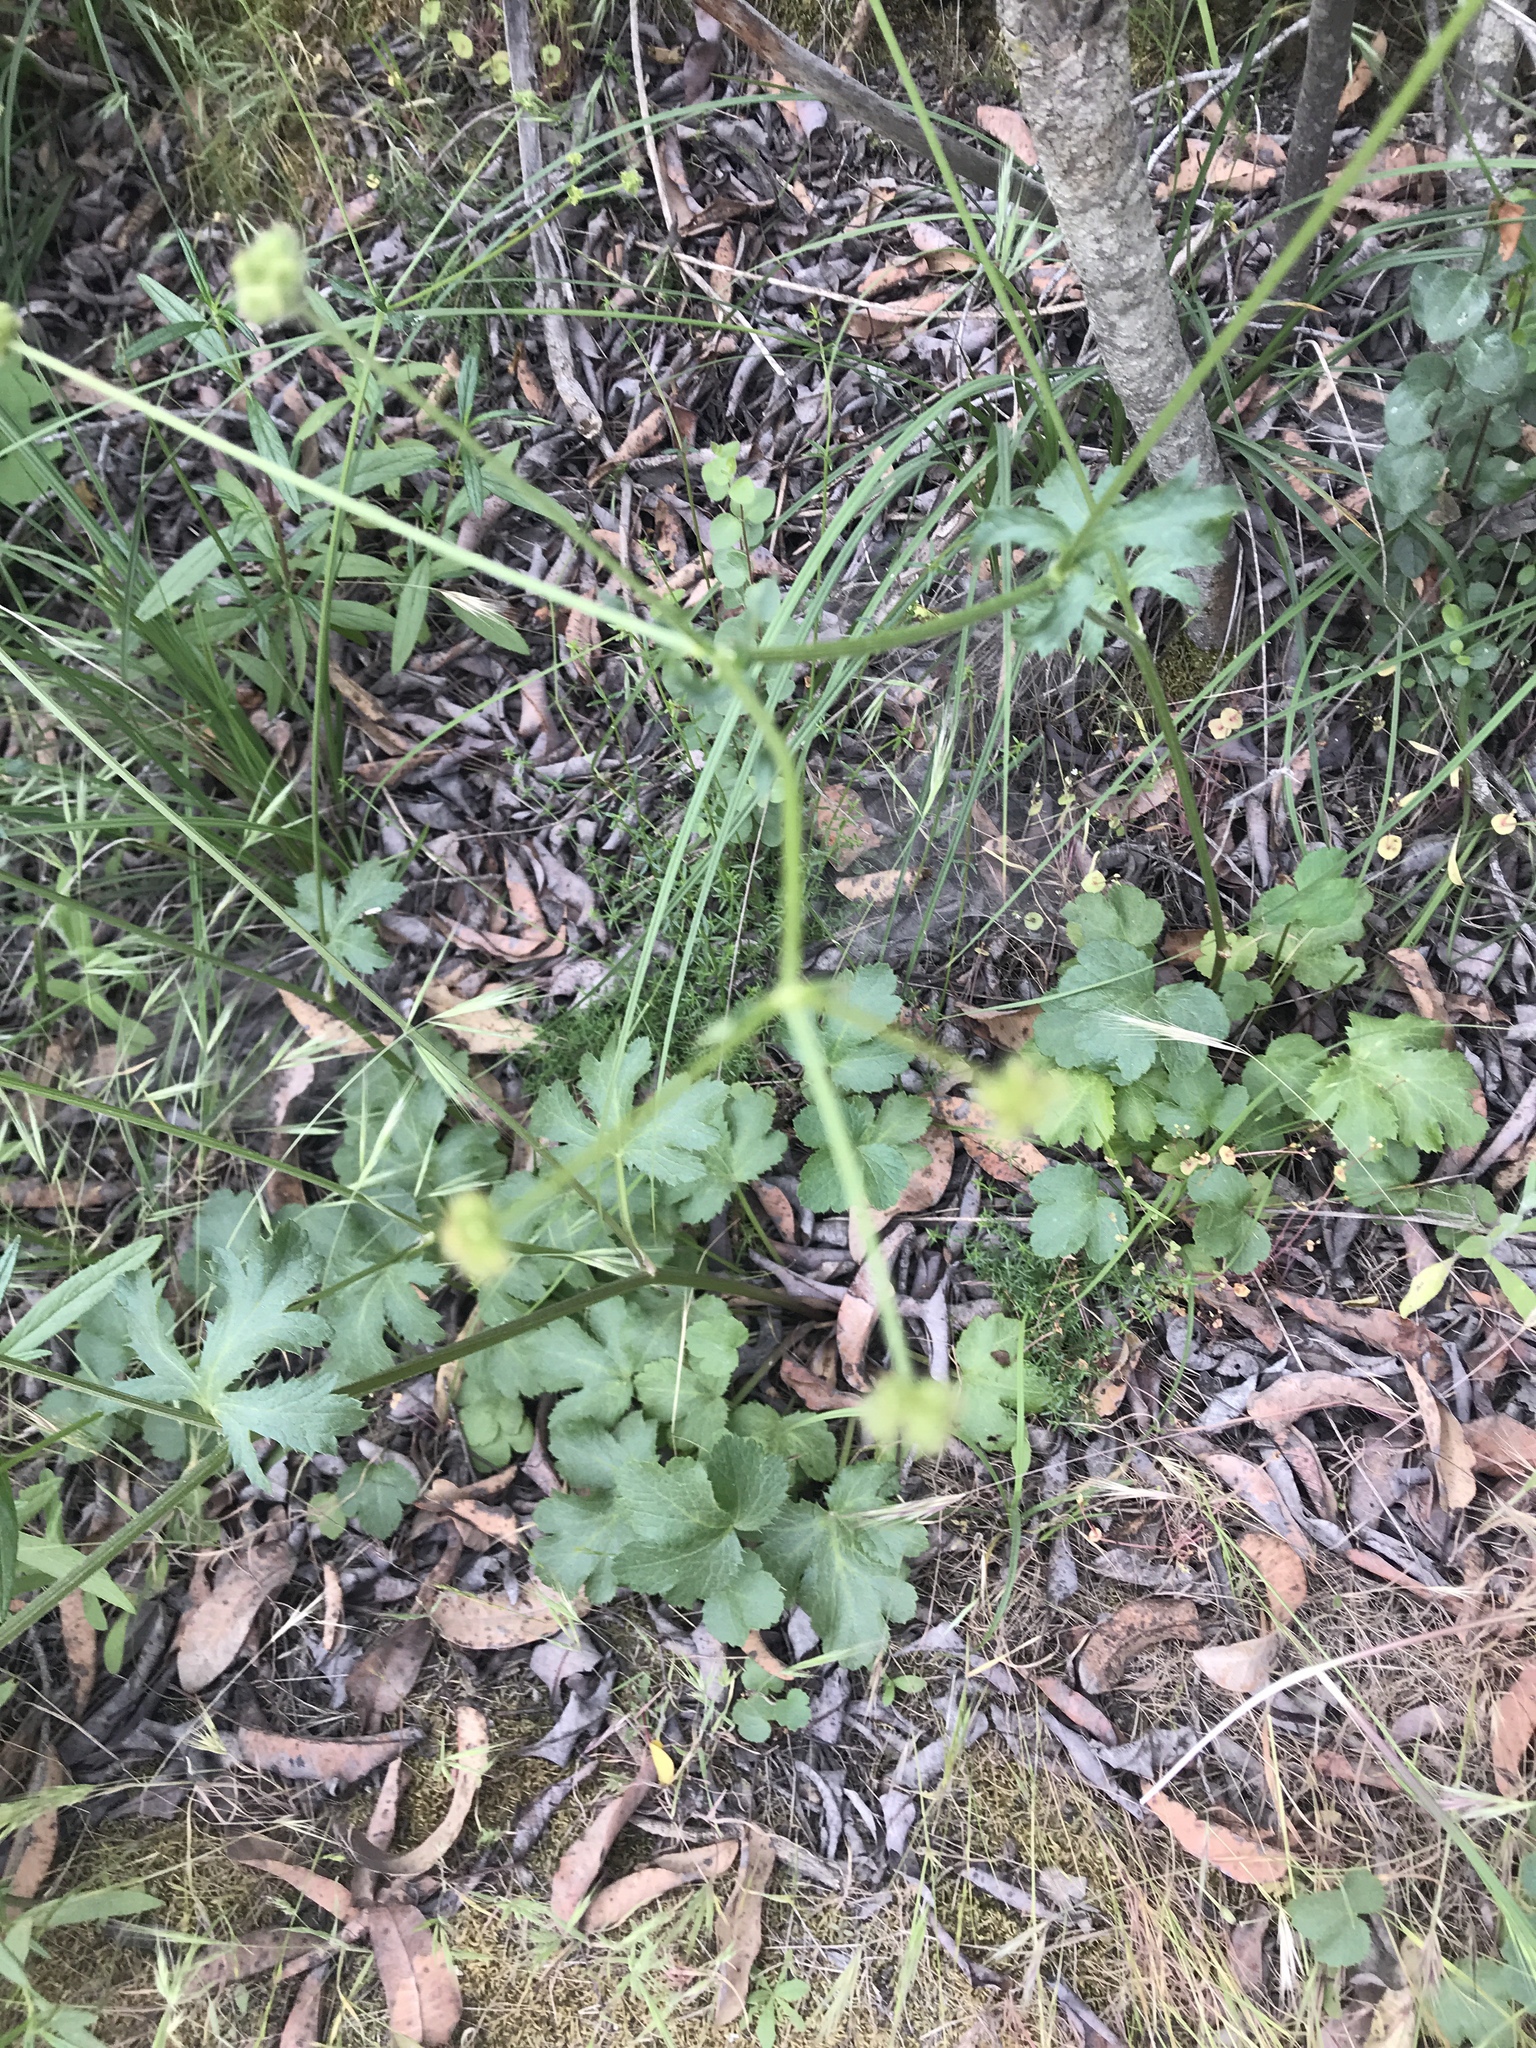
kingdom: Plantae
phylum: Tracheophyta
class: Magnoliopsida
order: Apiales
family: Apiaceae
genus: Sanicula
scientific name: Sanicula crassicaulis
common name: Western snakeroot
